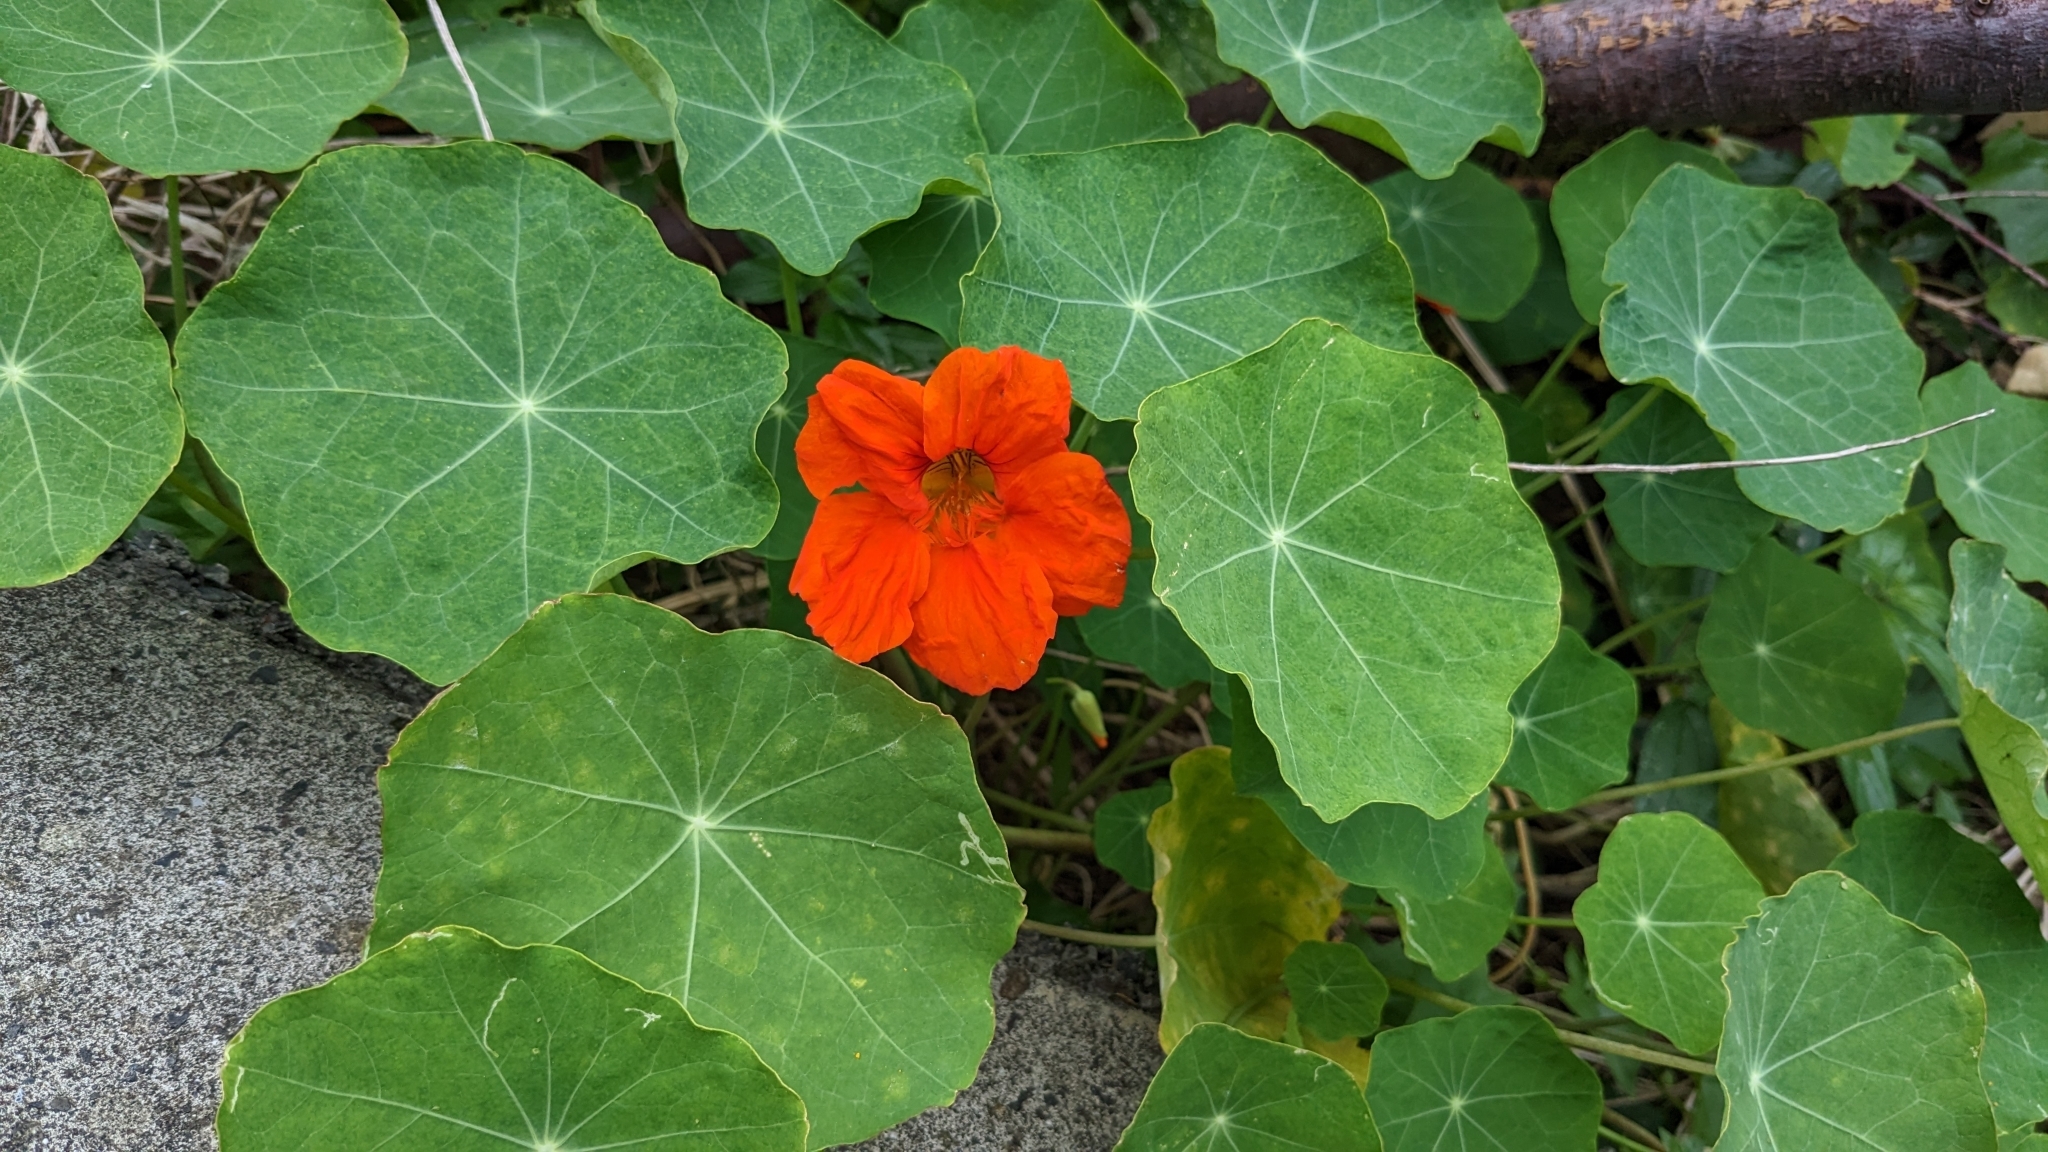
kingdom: Plantae
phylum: Tracheophyta
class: Magnoliopsida
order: Brassicales
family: Tropaeolaceae
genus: Tropaeolum
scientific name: Tropaeolum majus
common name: Nasturtium
